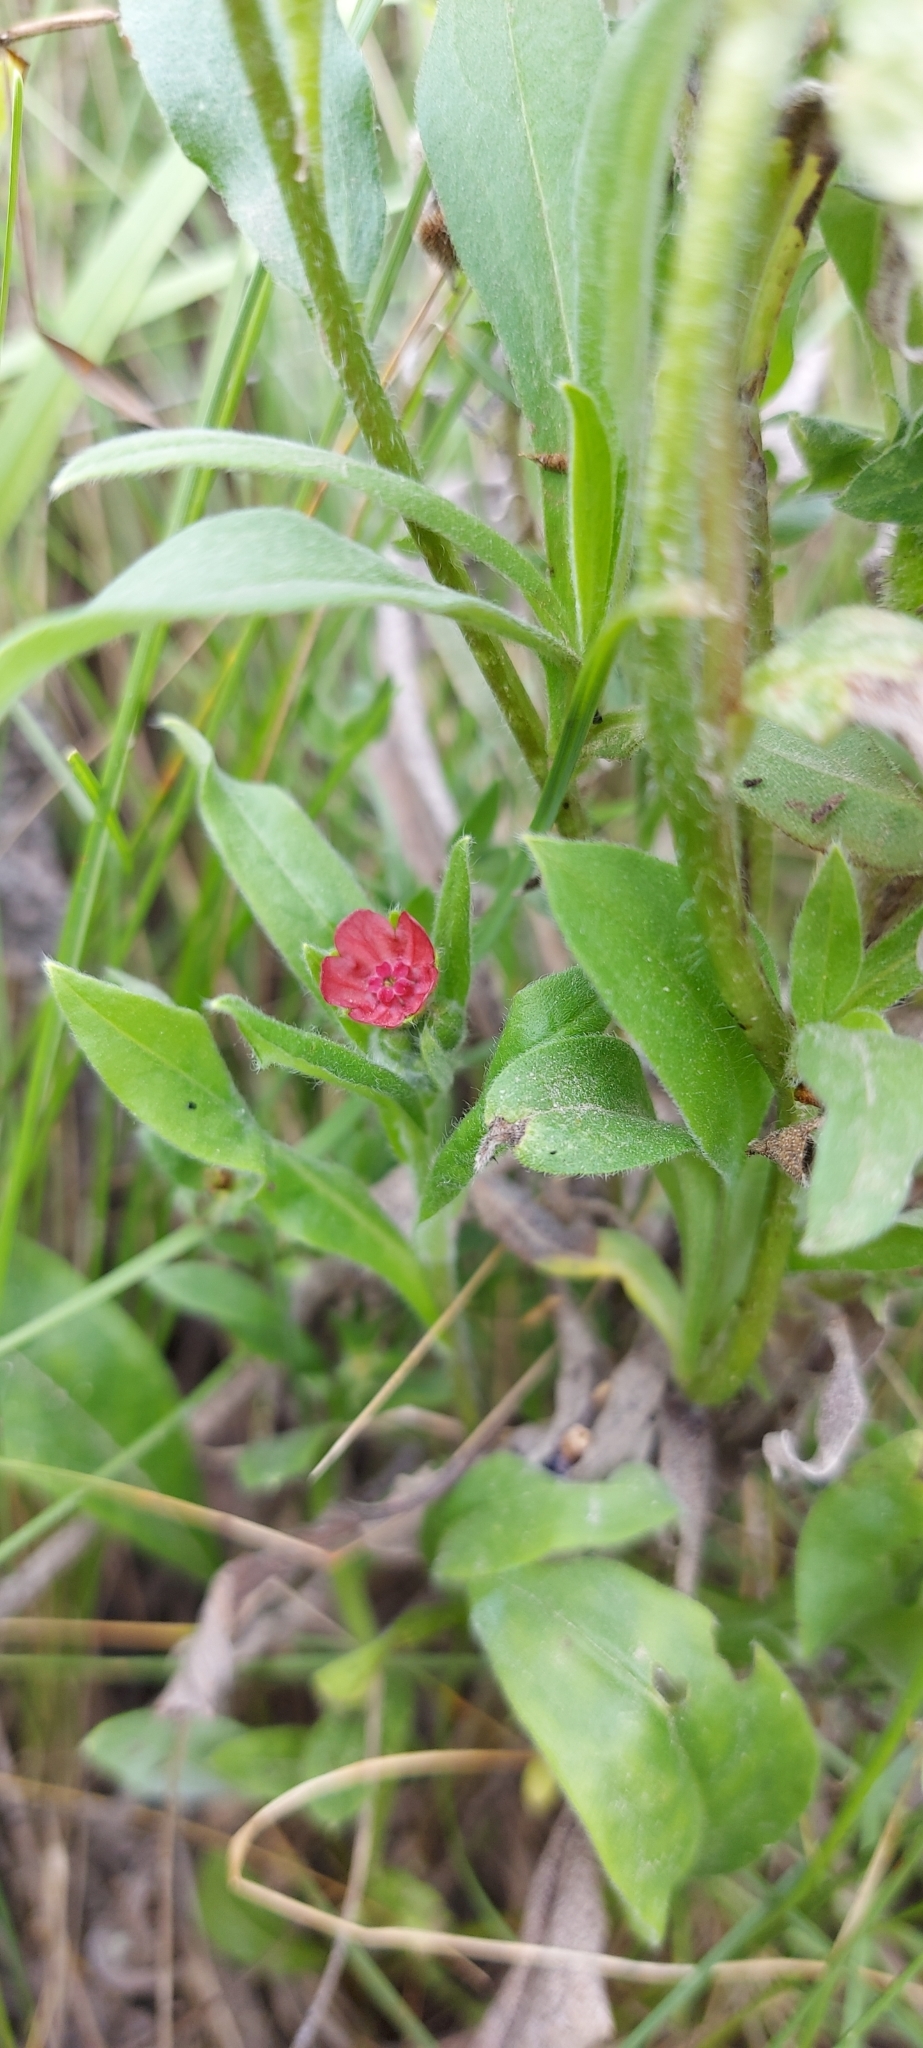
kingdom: Plantae
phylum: Tracheophyta
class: Magnoliopsida
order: Boraginales
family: Boraginaceae
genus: Cynoglossum
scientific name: Cynoglossum officinale
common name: Hound's-tongue
